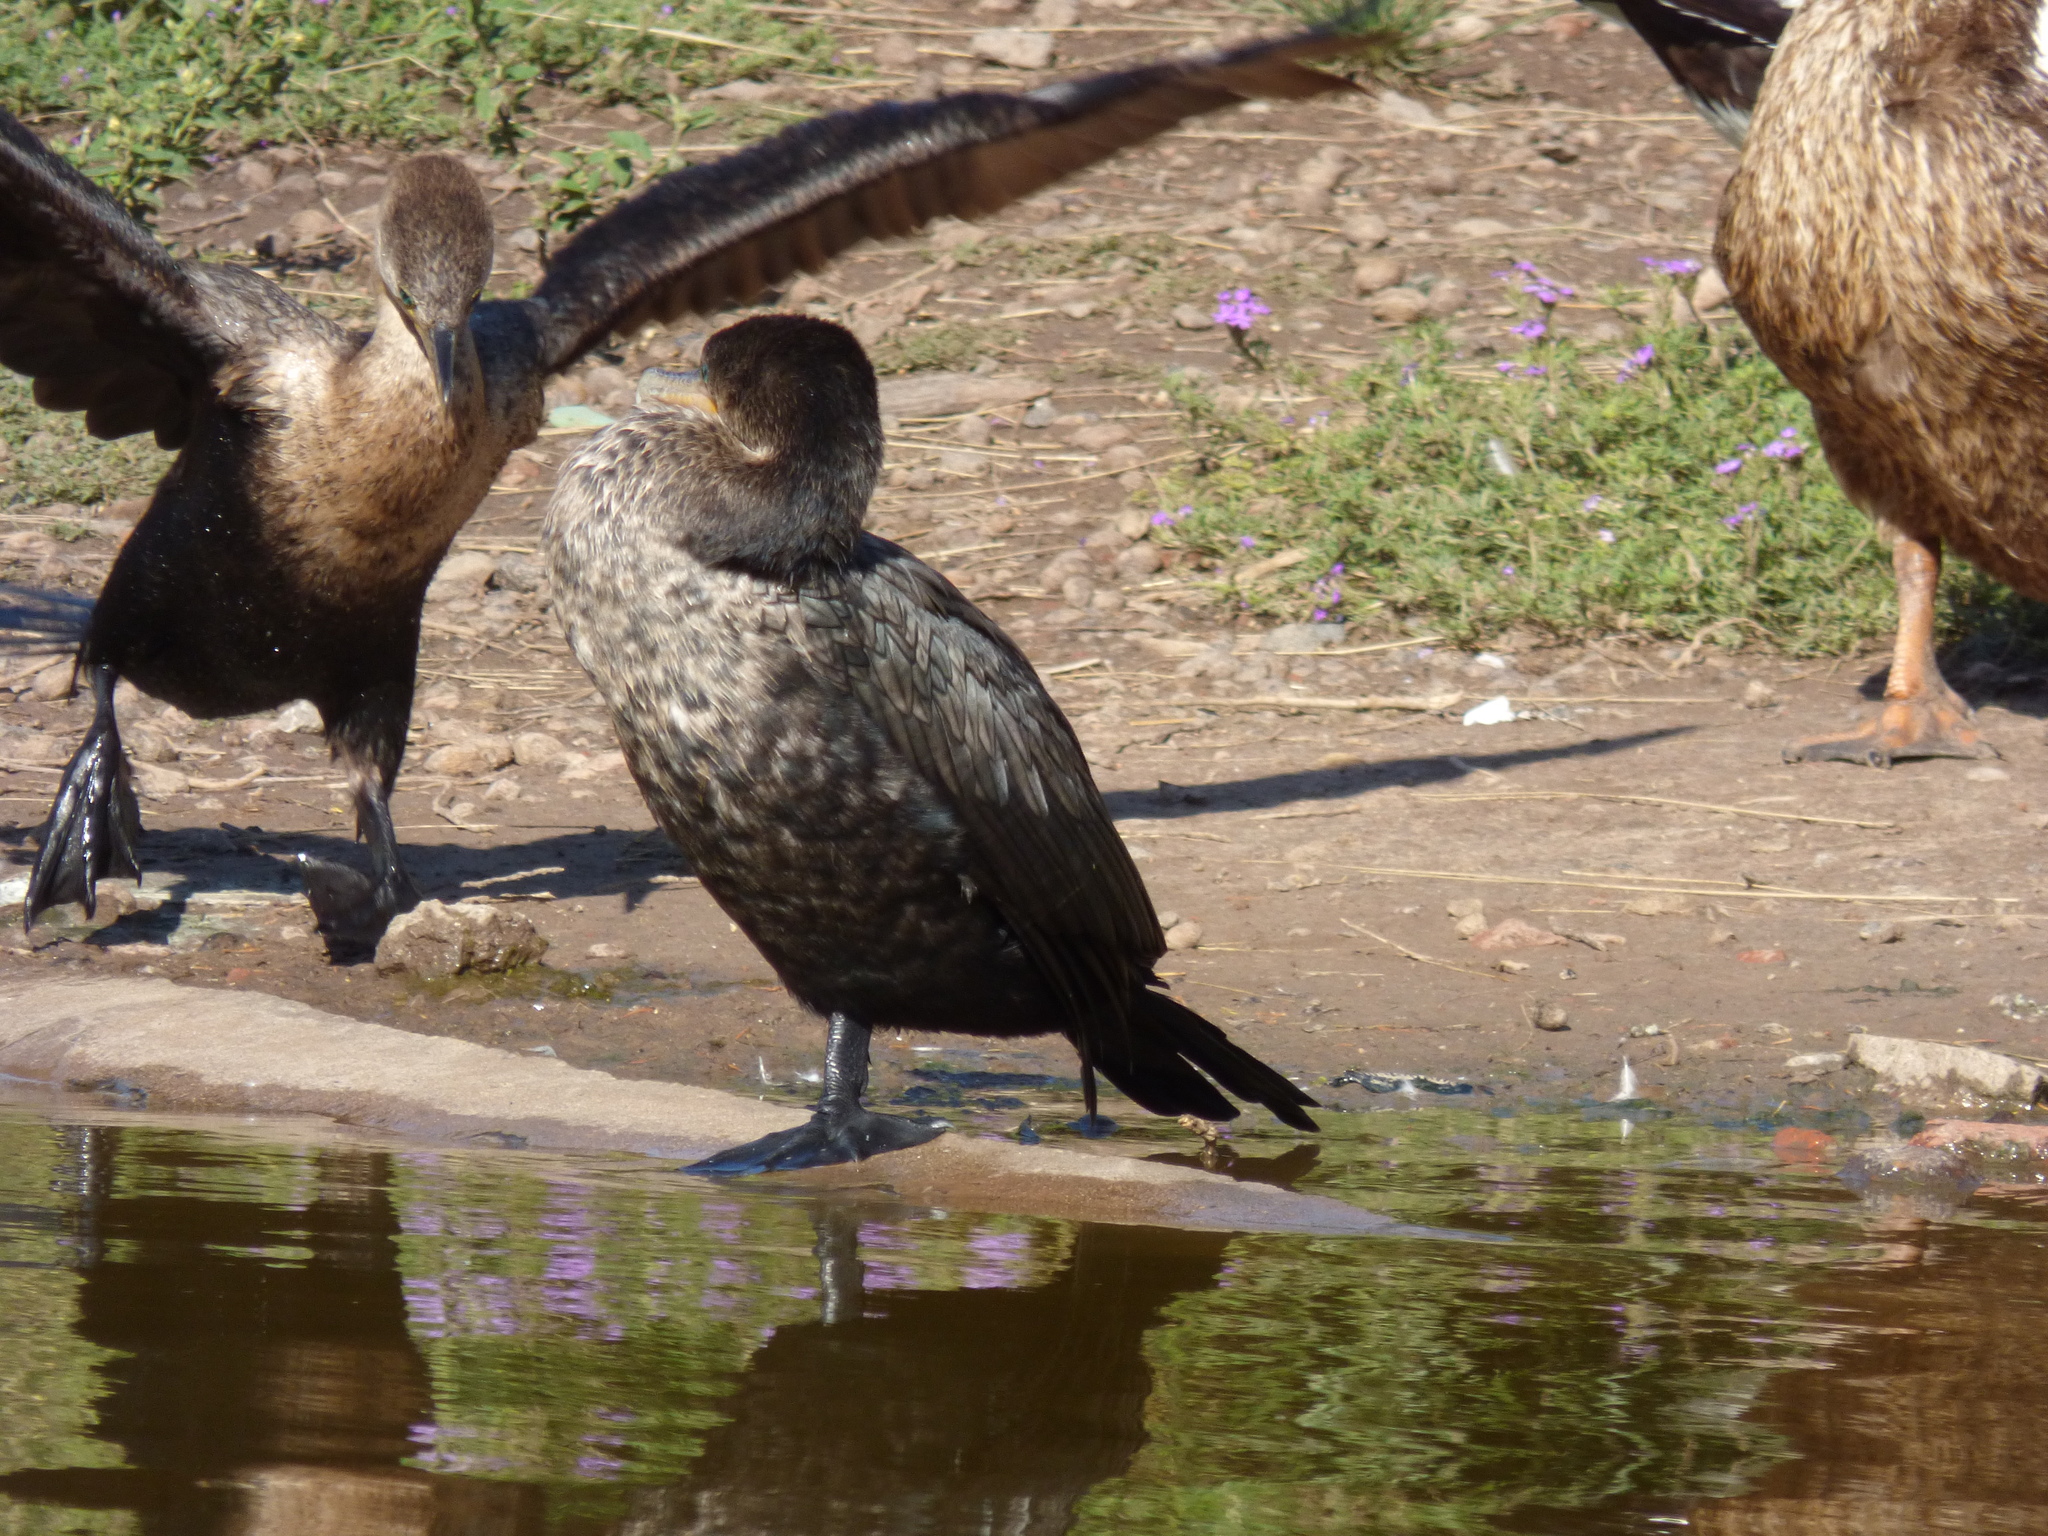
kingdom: Animalia
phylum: Chordata
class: Aves
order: Suliformes
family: Phalacrocoracidae
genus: Phalacrocorax
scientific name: Phalacrocorax brasilianus
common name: Neotropic cormorant
